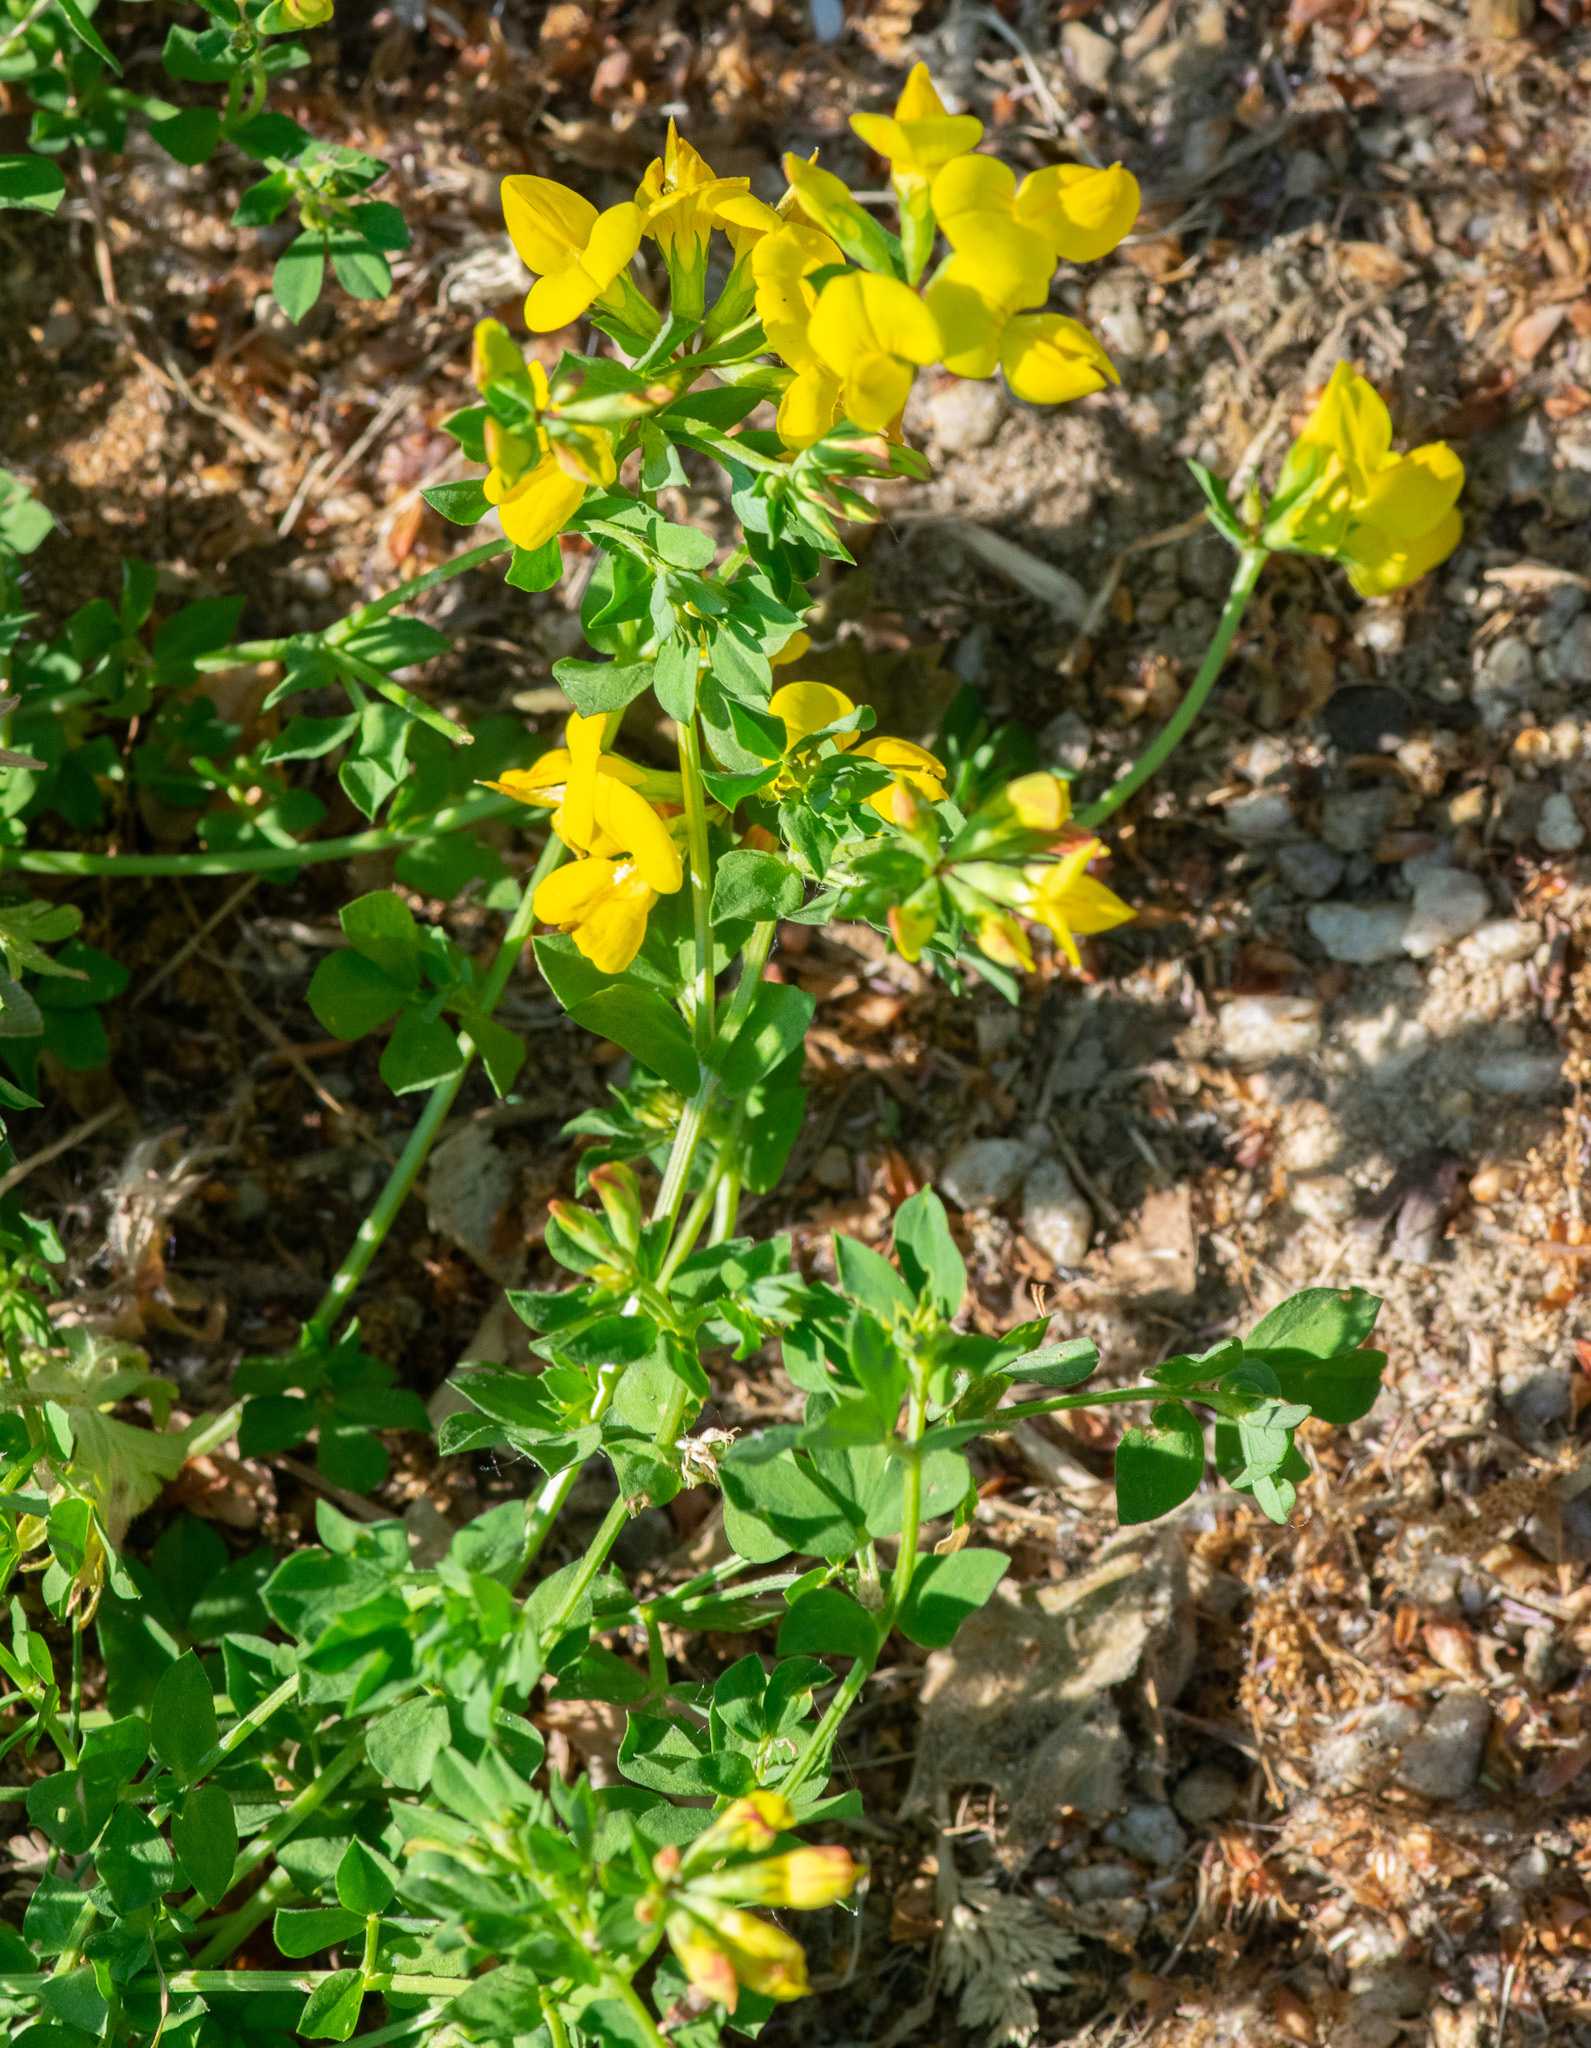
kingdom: Plantae
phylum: Tracheophyta
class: Magnoliopsida
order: Fabales
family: Fabaceae
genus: Lotus
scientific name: Lotus corniculatus
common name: Common bird's-foot-trefoil
